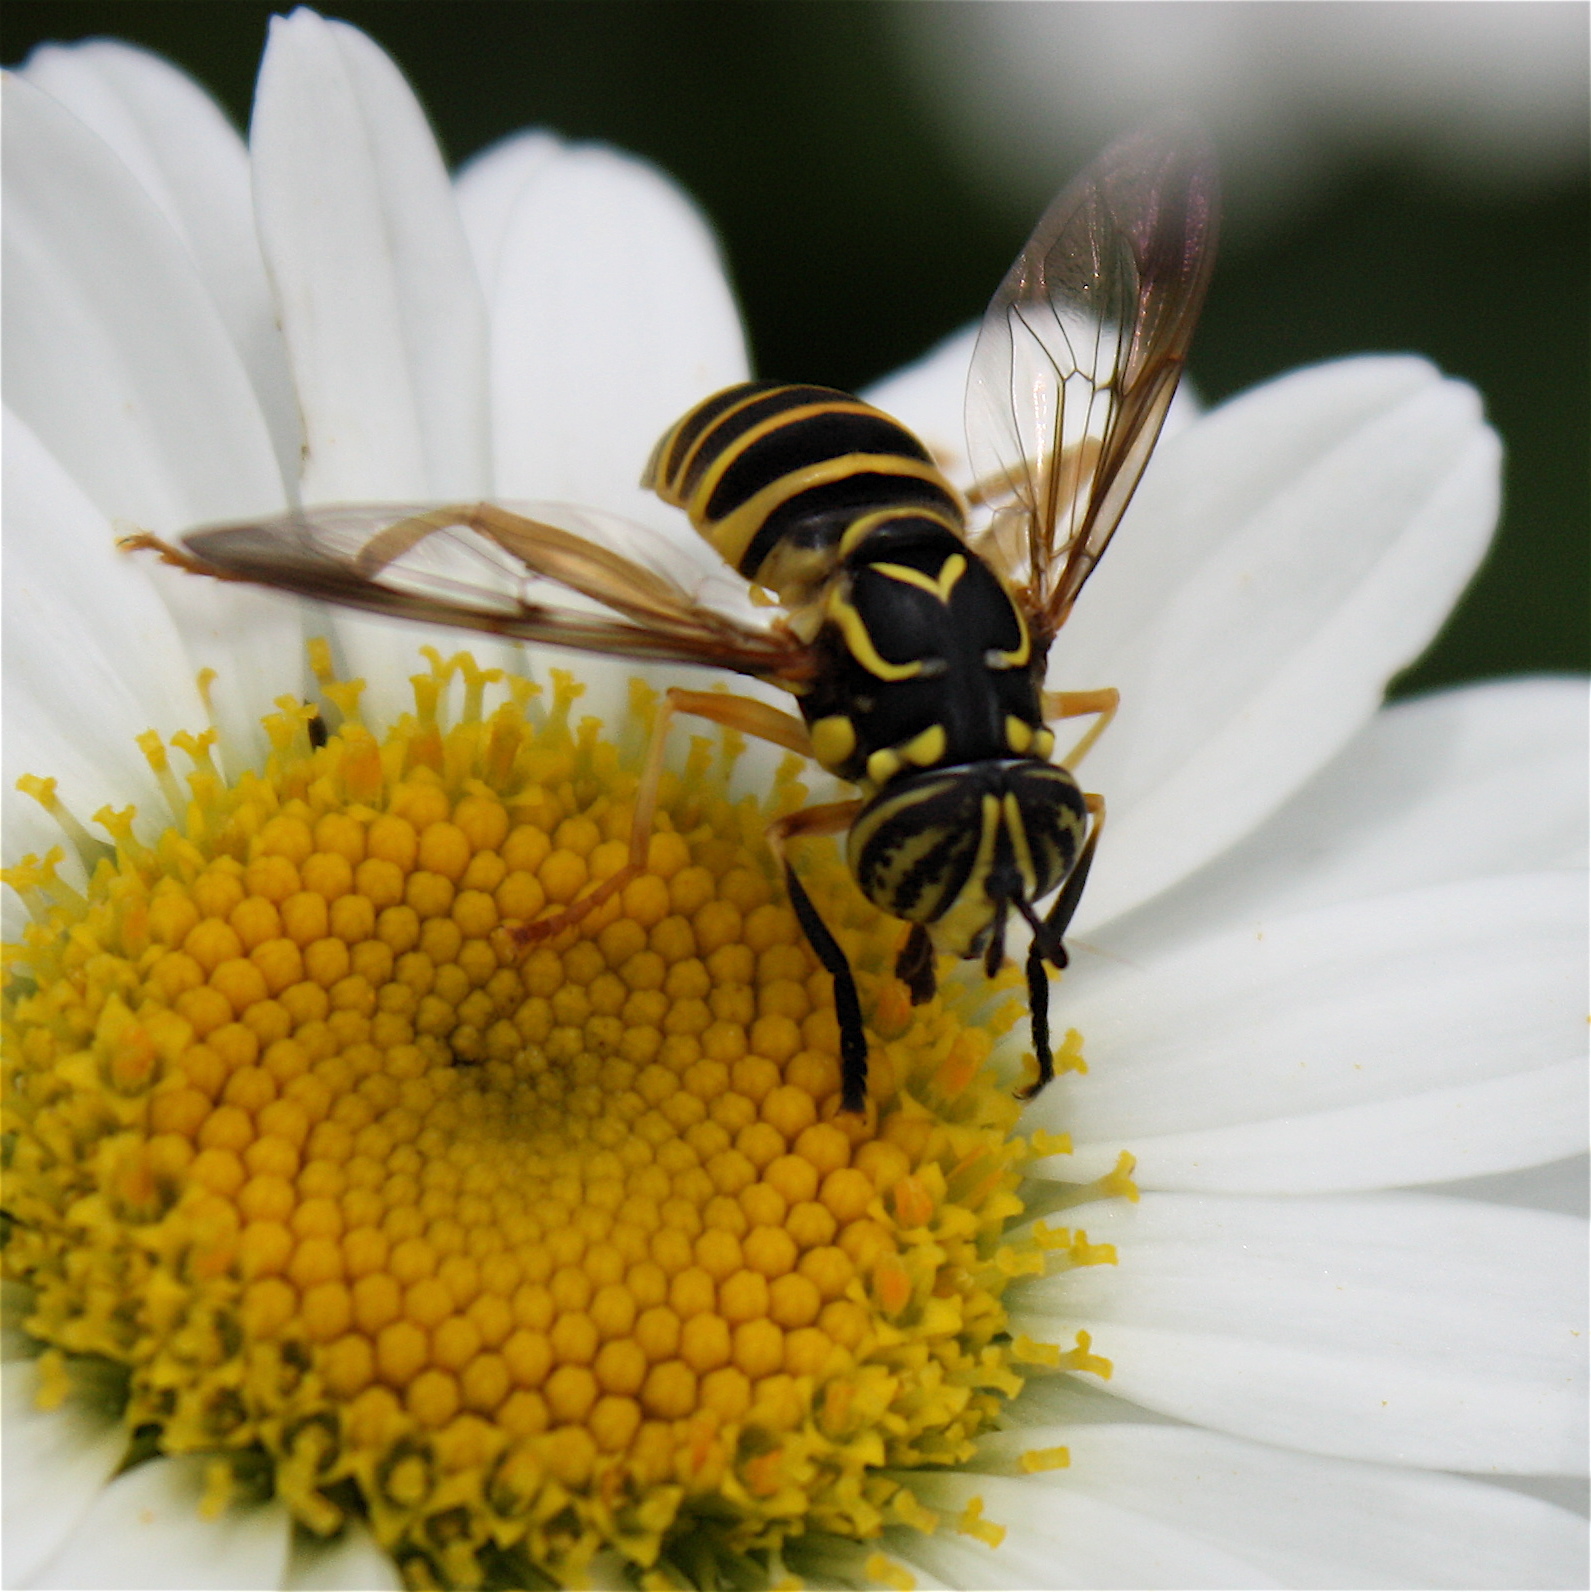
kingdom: Animalia
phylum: Arthropoda
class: Insecta
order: Diptera
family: Syrphidae
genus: Spilomyia
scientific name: Spilomyia longicornis
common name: Eastern hornet fly
